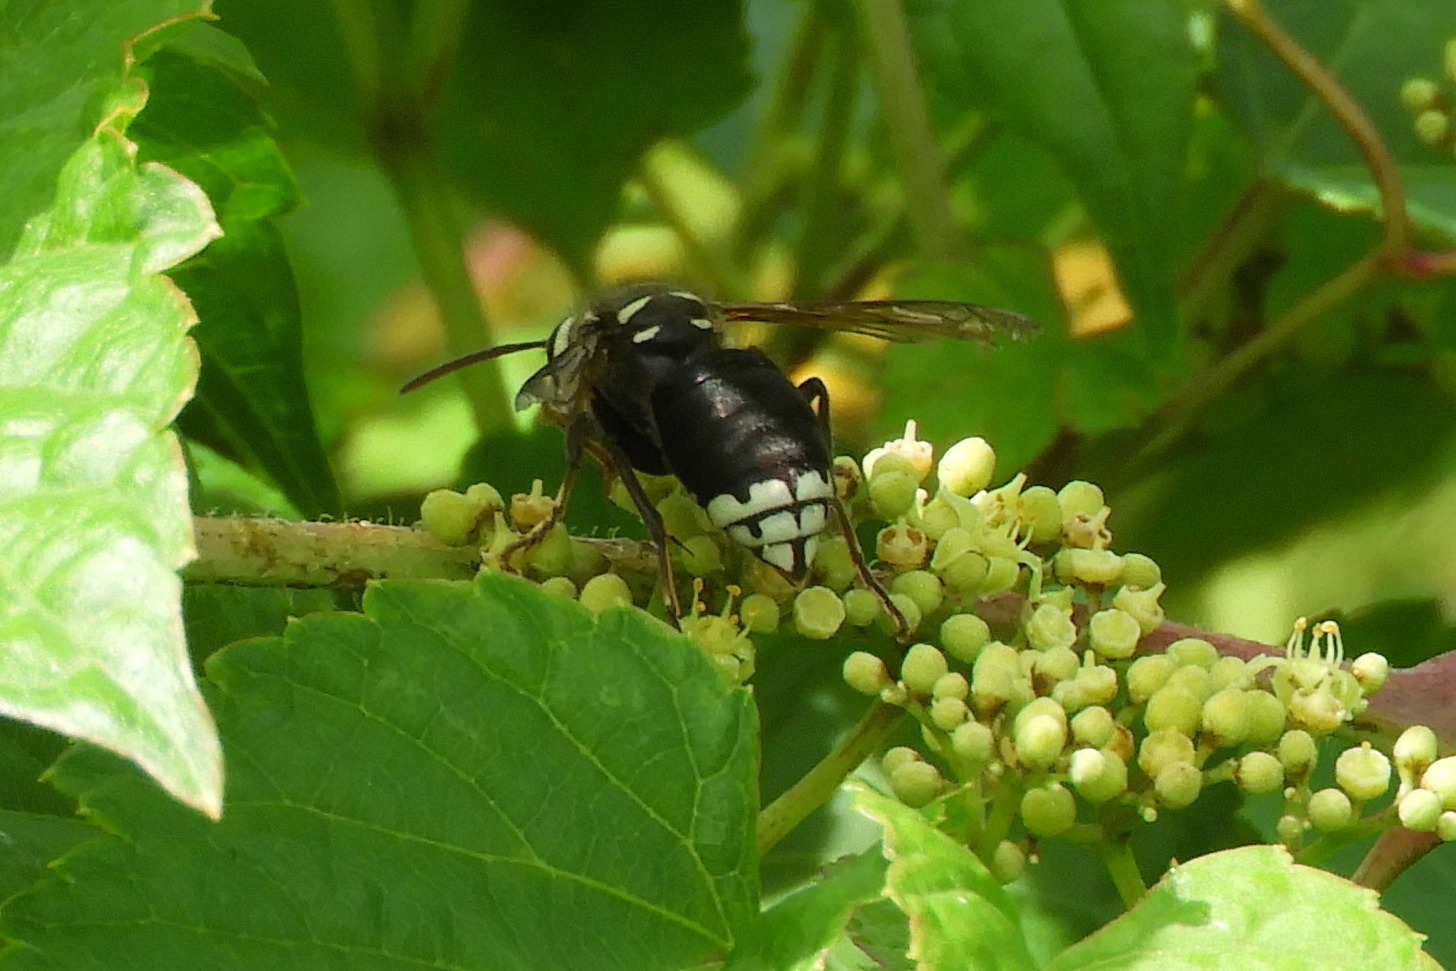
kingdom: Animalia
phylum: Arthropoda
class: Insecta
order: Hymenoptera
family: Vespidae
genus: Dolichovespula
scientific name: Dolichovespula maculata
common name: Bald-faced hornet
